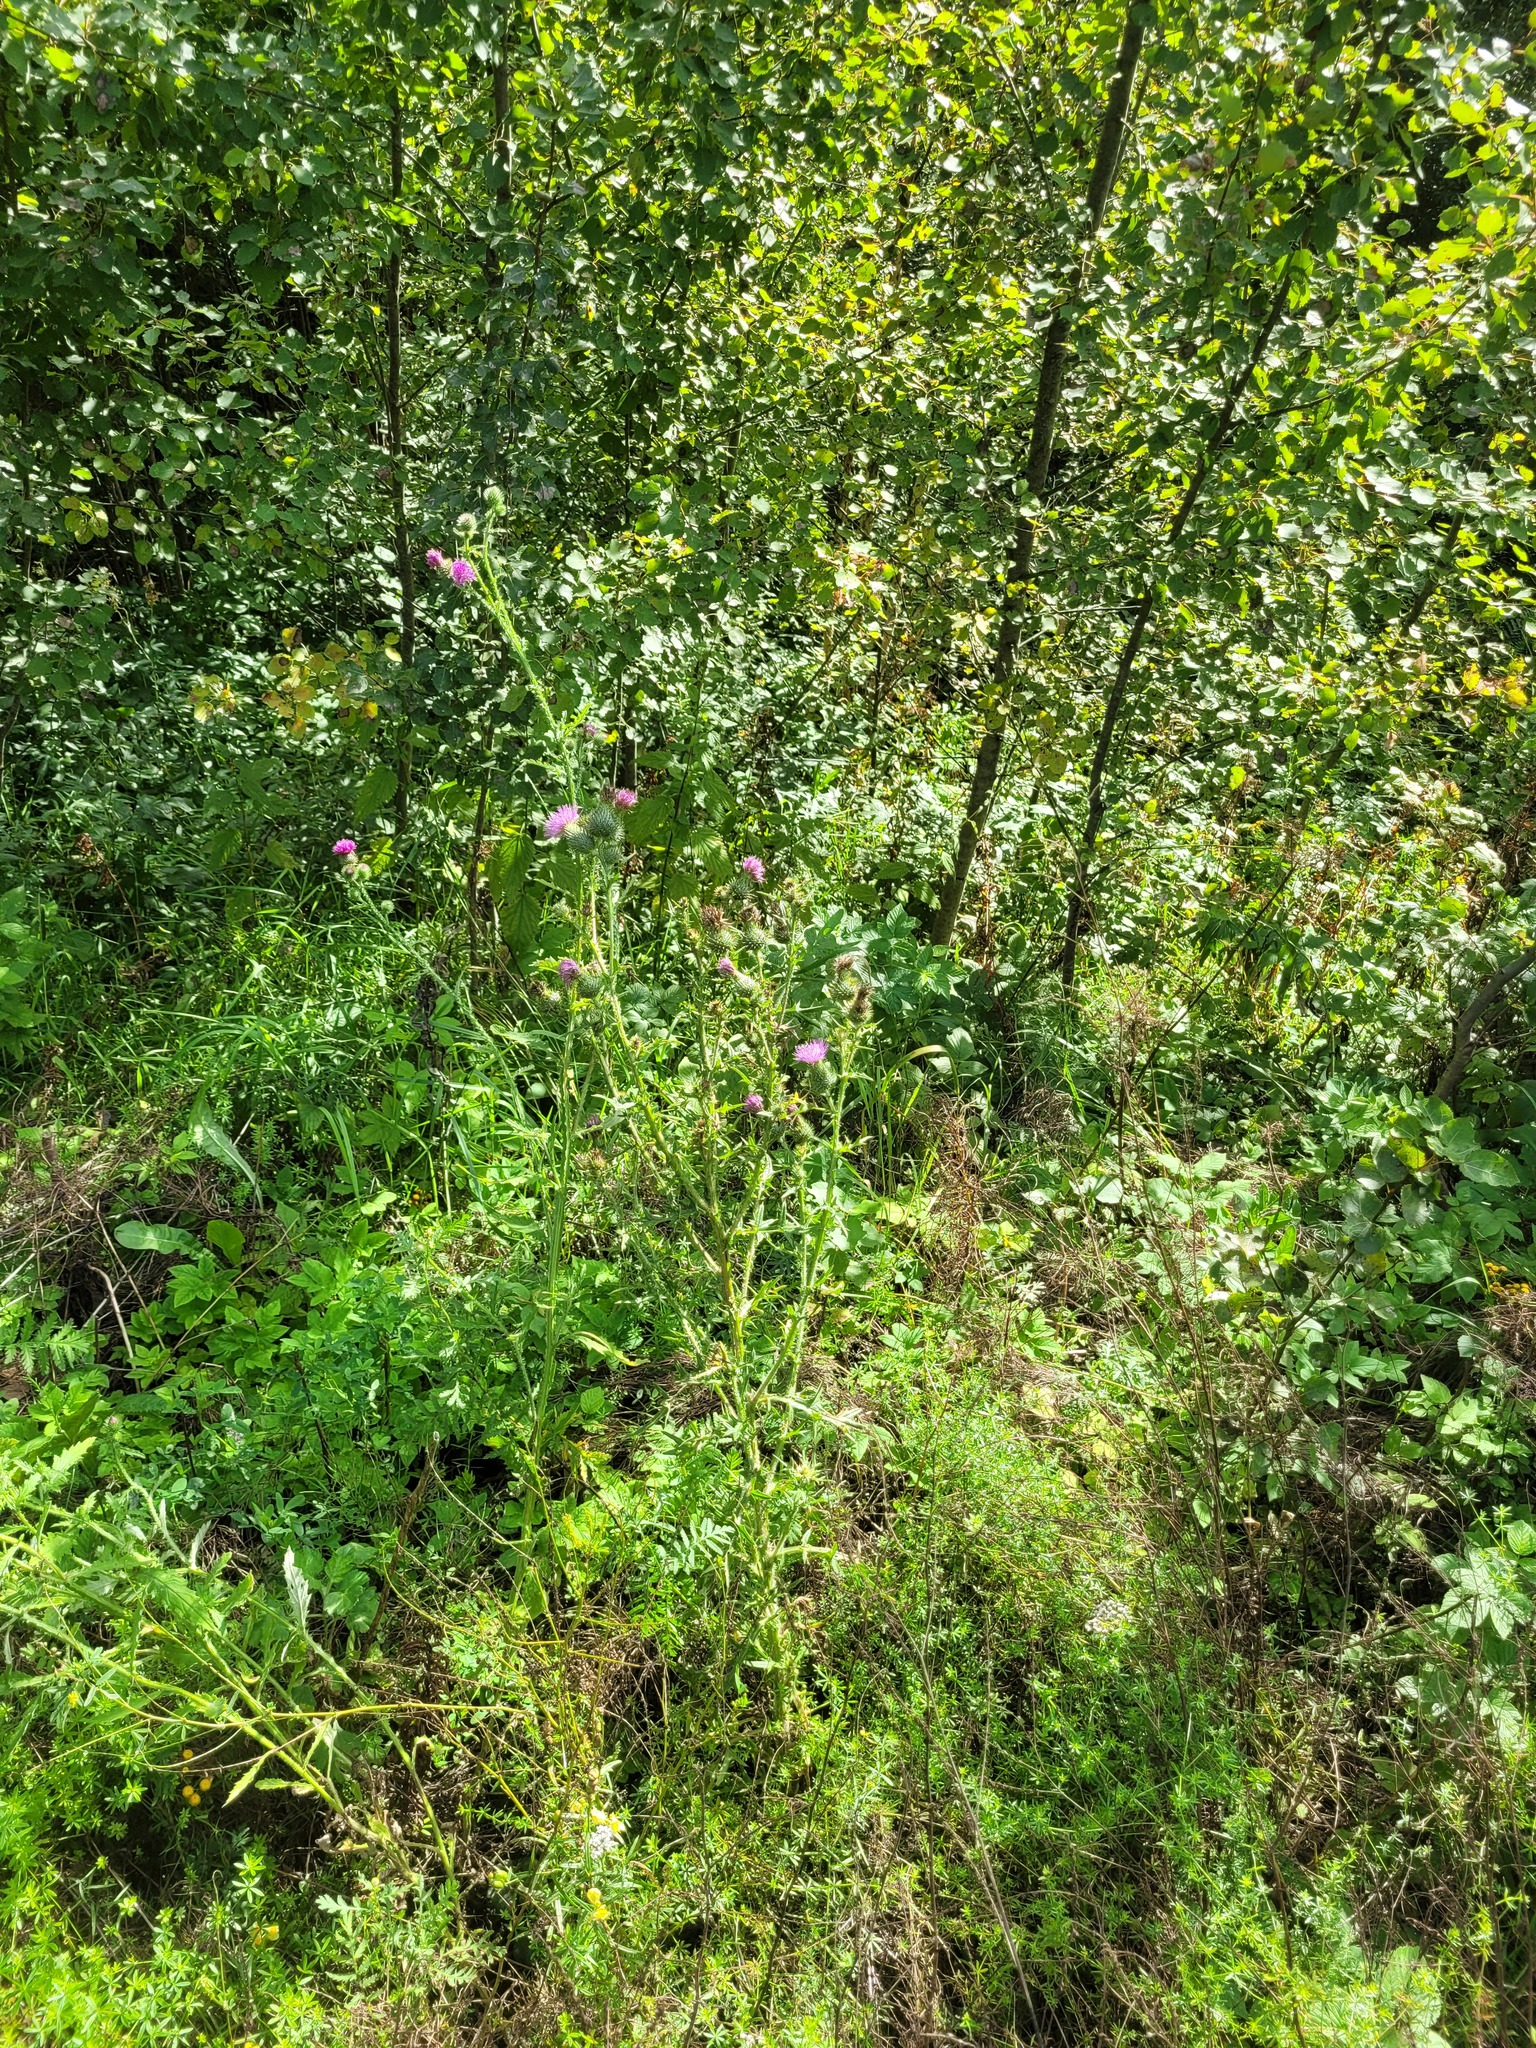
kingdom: Plantae
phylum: Tracheophyta
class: Magnoliopsida
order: Asterales
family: Asteraceae
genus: Cirsium
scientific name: Cirsium vulgare
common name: Bull thistle
